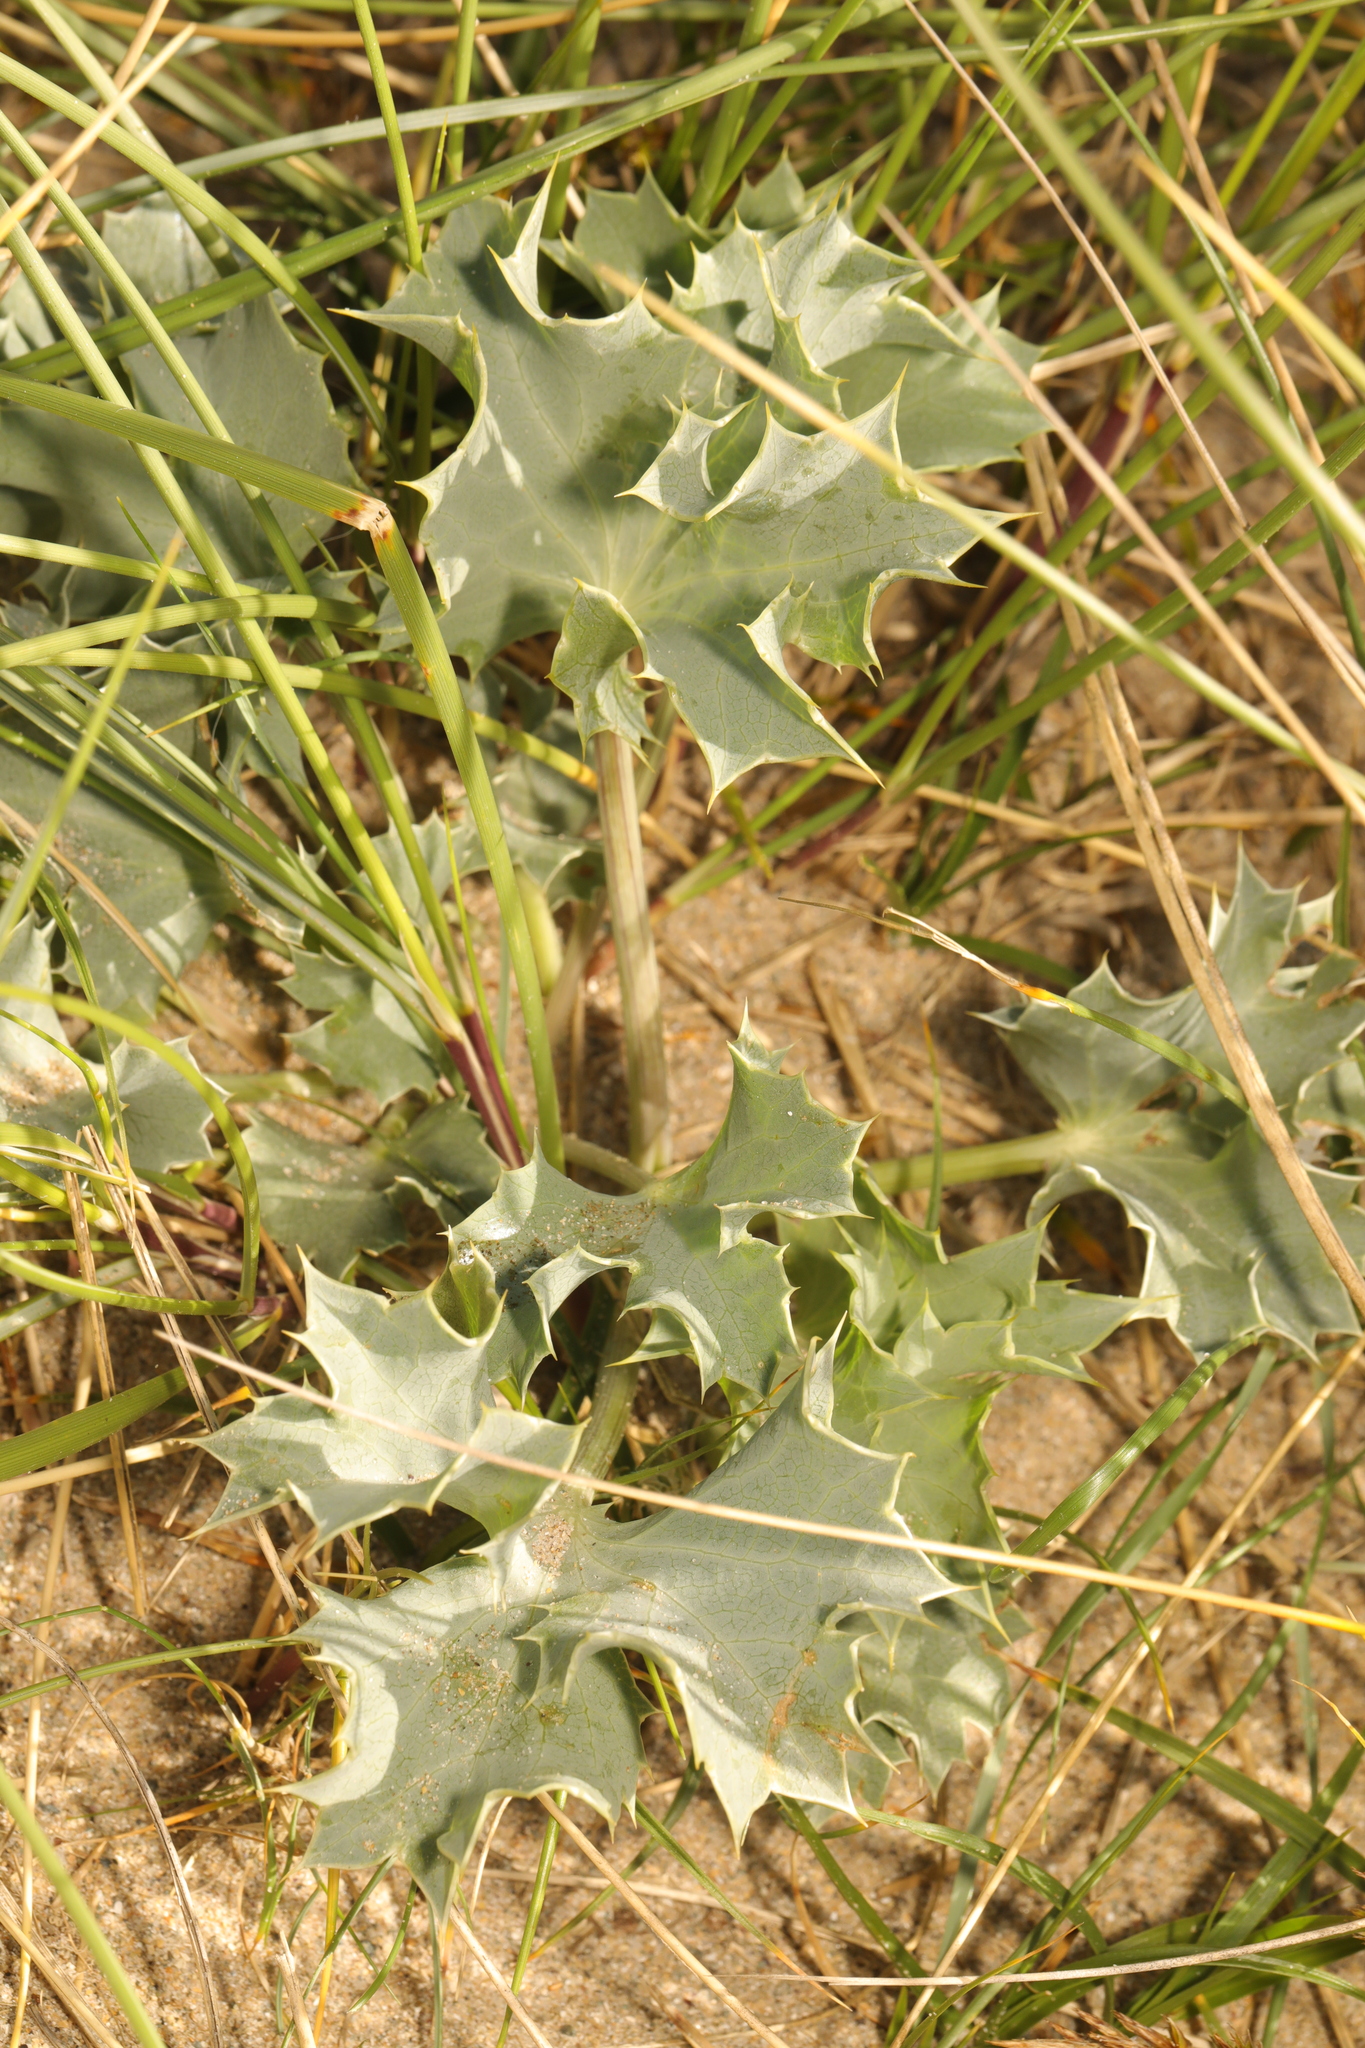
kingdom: Plantae
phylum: Tracheophyta
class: Magnoliopsida
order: Apiales
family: Apiaceae
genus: Eryngium
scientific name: Eryngium maritimum
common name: Sea-holly
